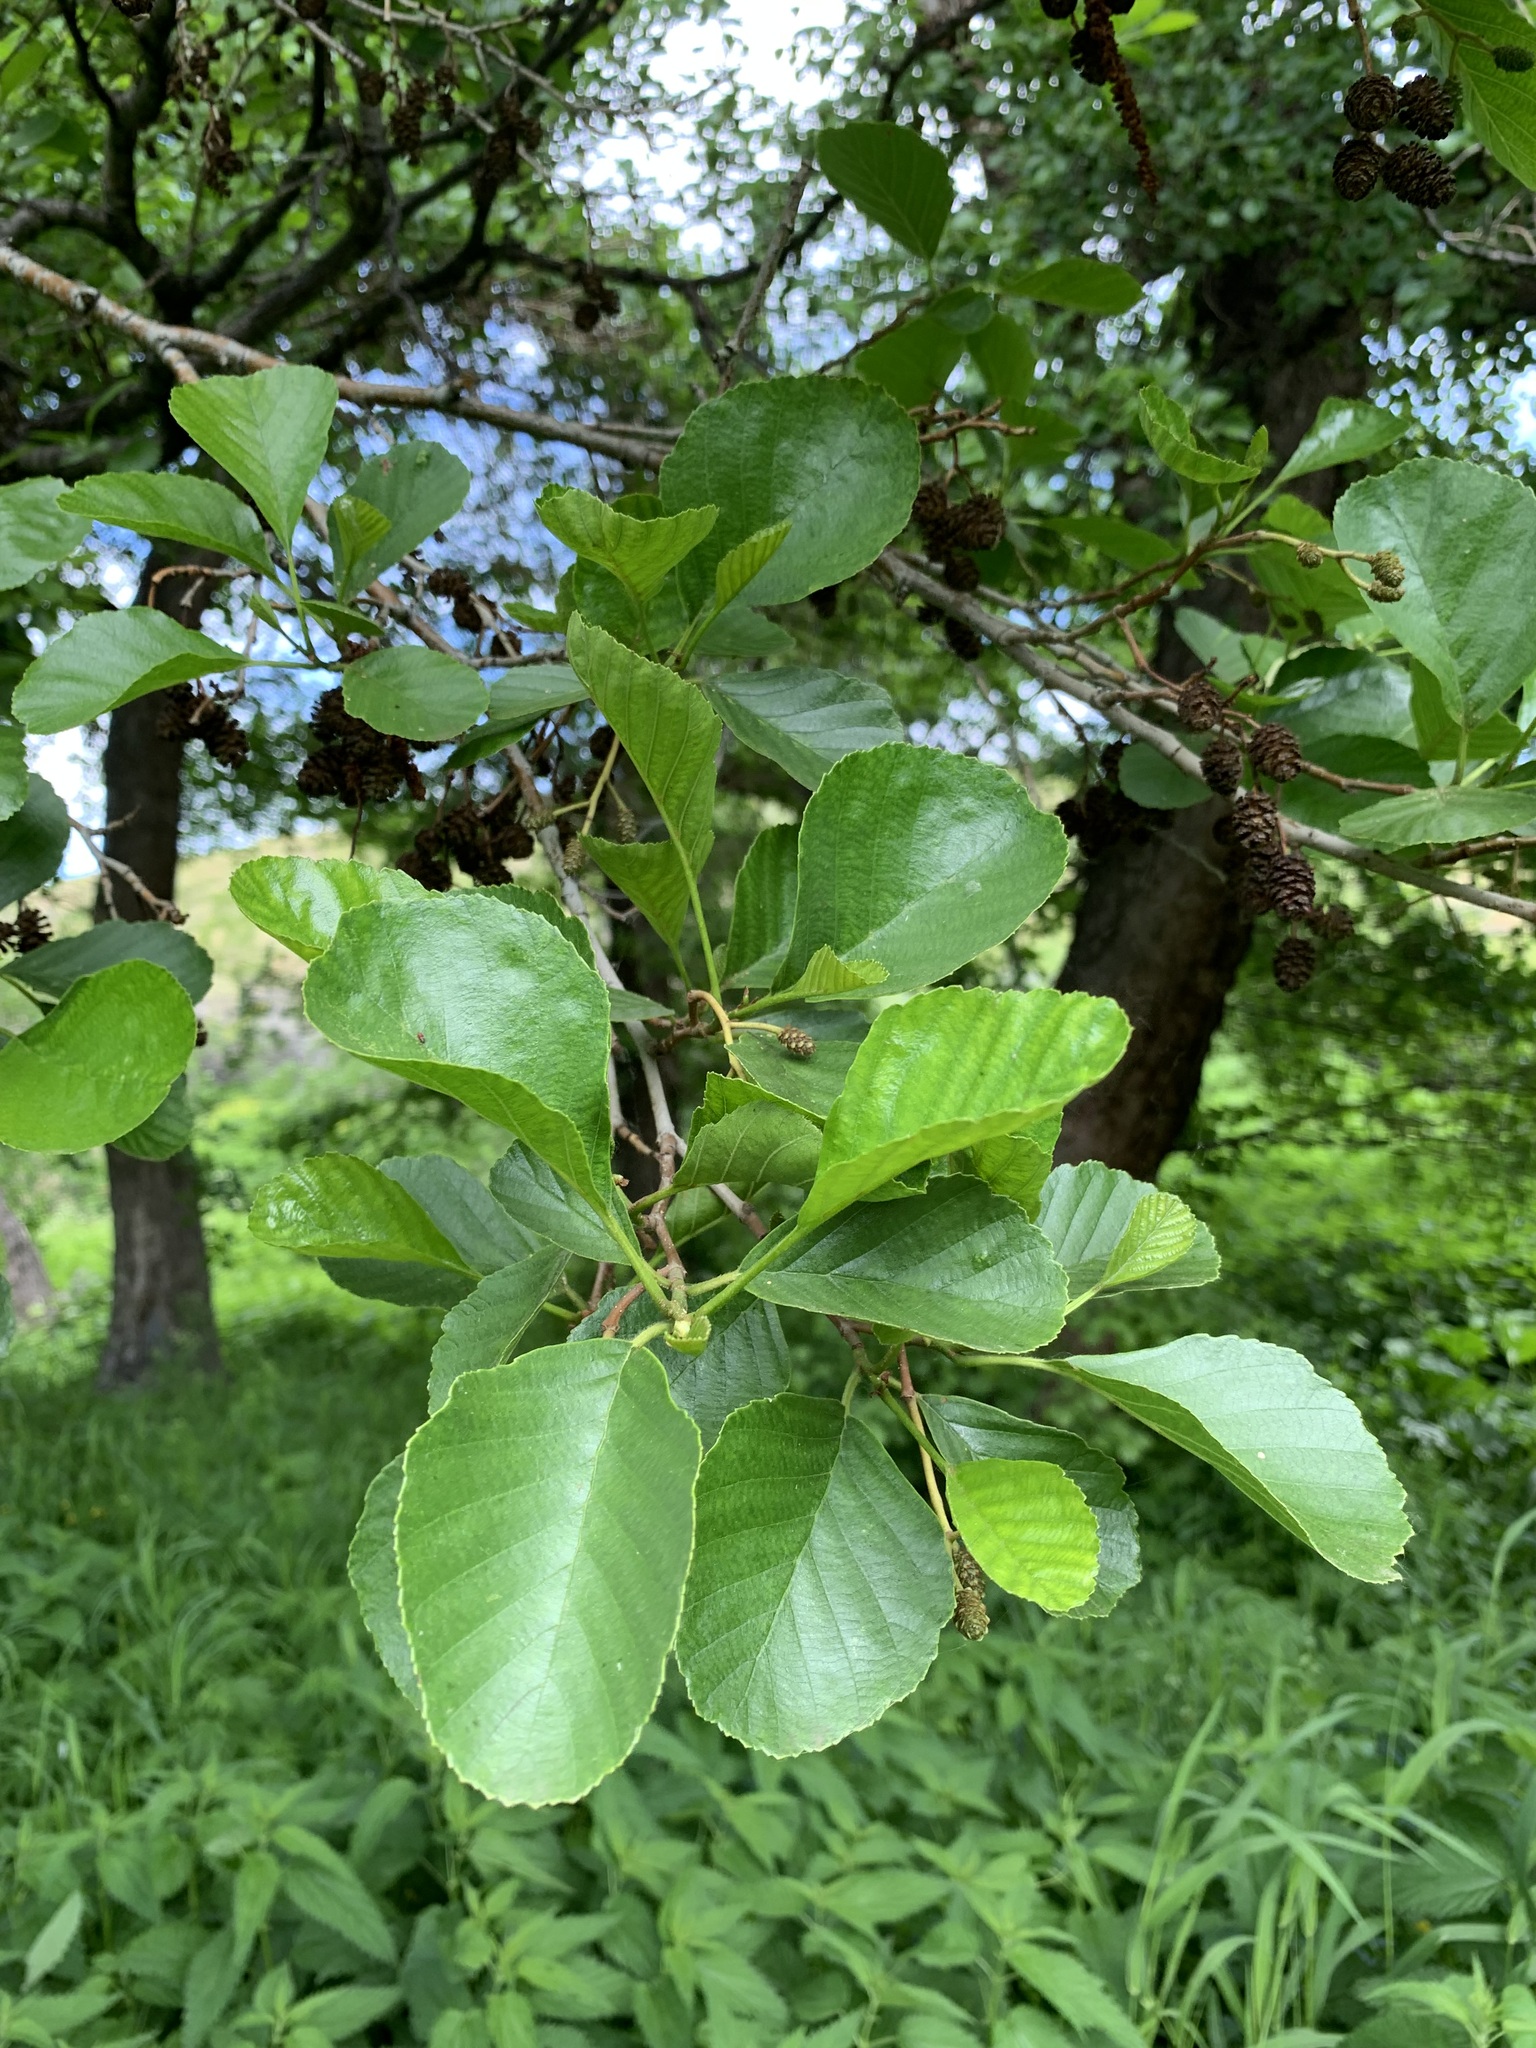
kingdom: Plantae
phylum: Tracheophyta
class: Magnoliopsida
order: Fagales
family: Betulaceae
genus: Alnus
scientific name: Alnus glutinosa
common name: Black alder
